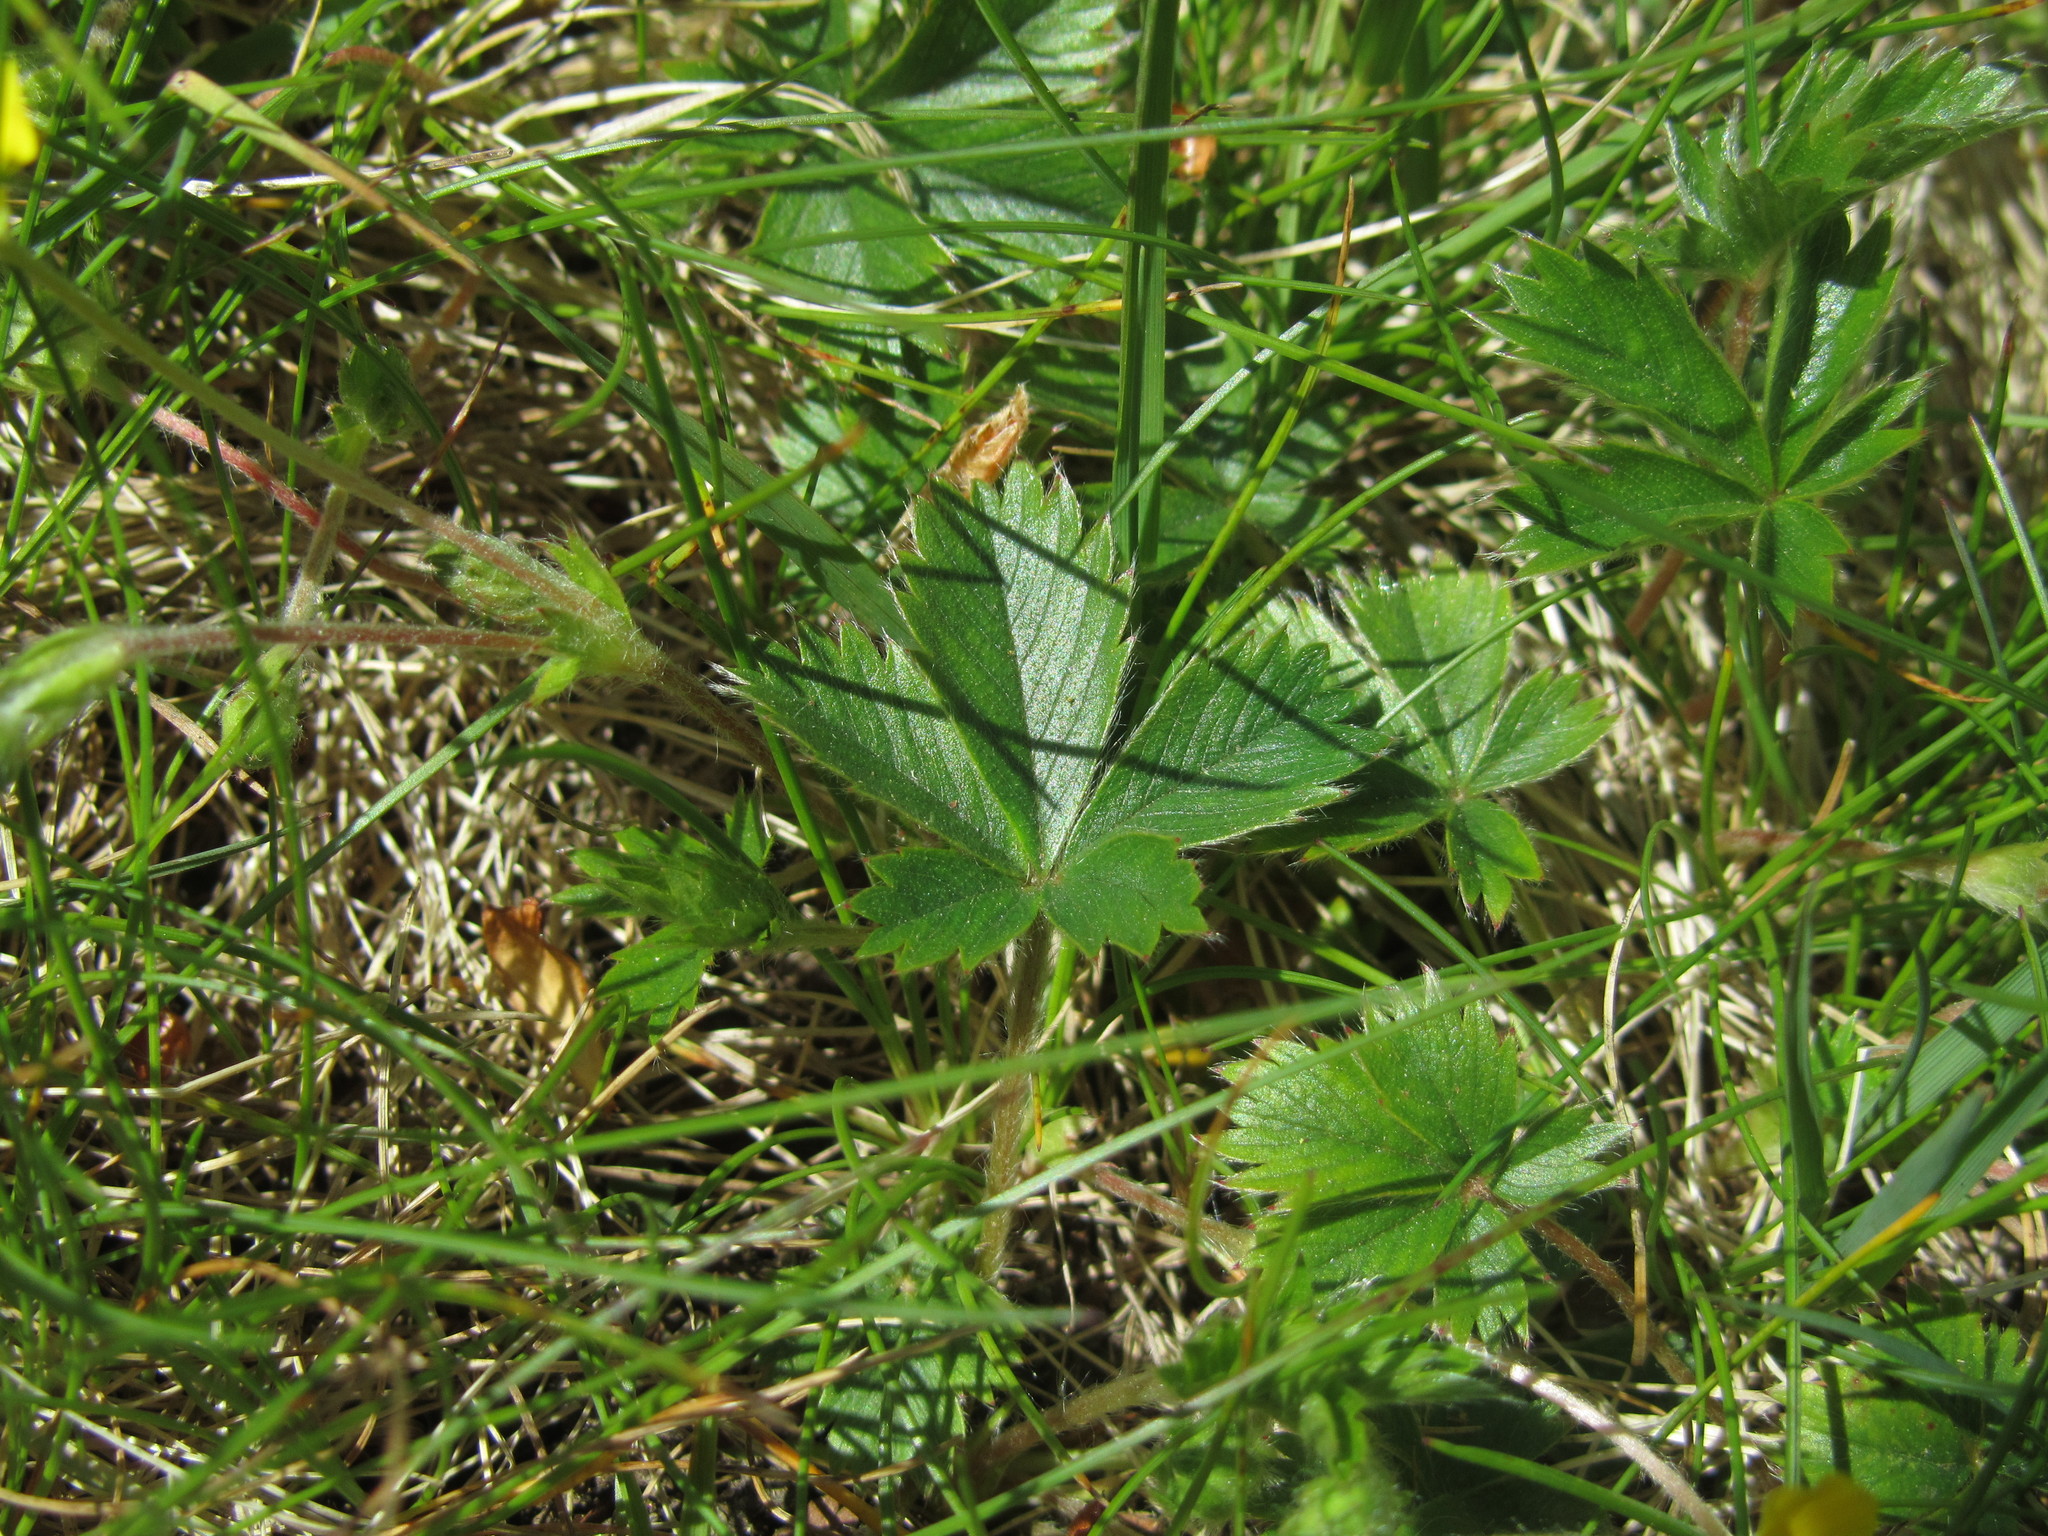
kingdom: Plantae
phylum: Tracheophyta
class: Magnoliopsida
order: Rosales
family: Rosaceae
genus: Potentilla
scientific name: Potentilla canadensis
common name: Canada cinquefoil
